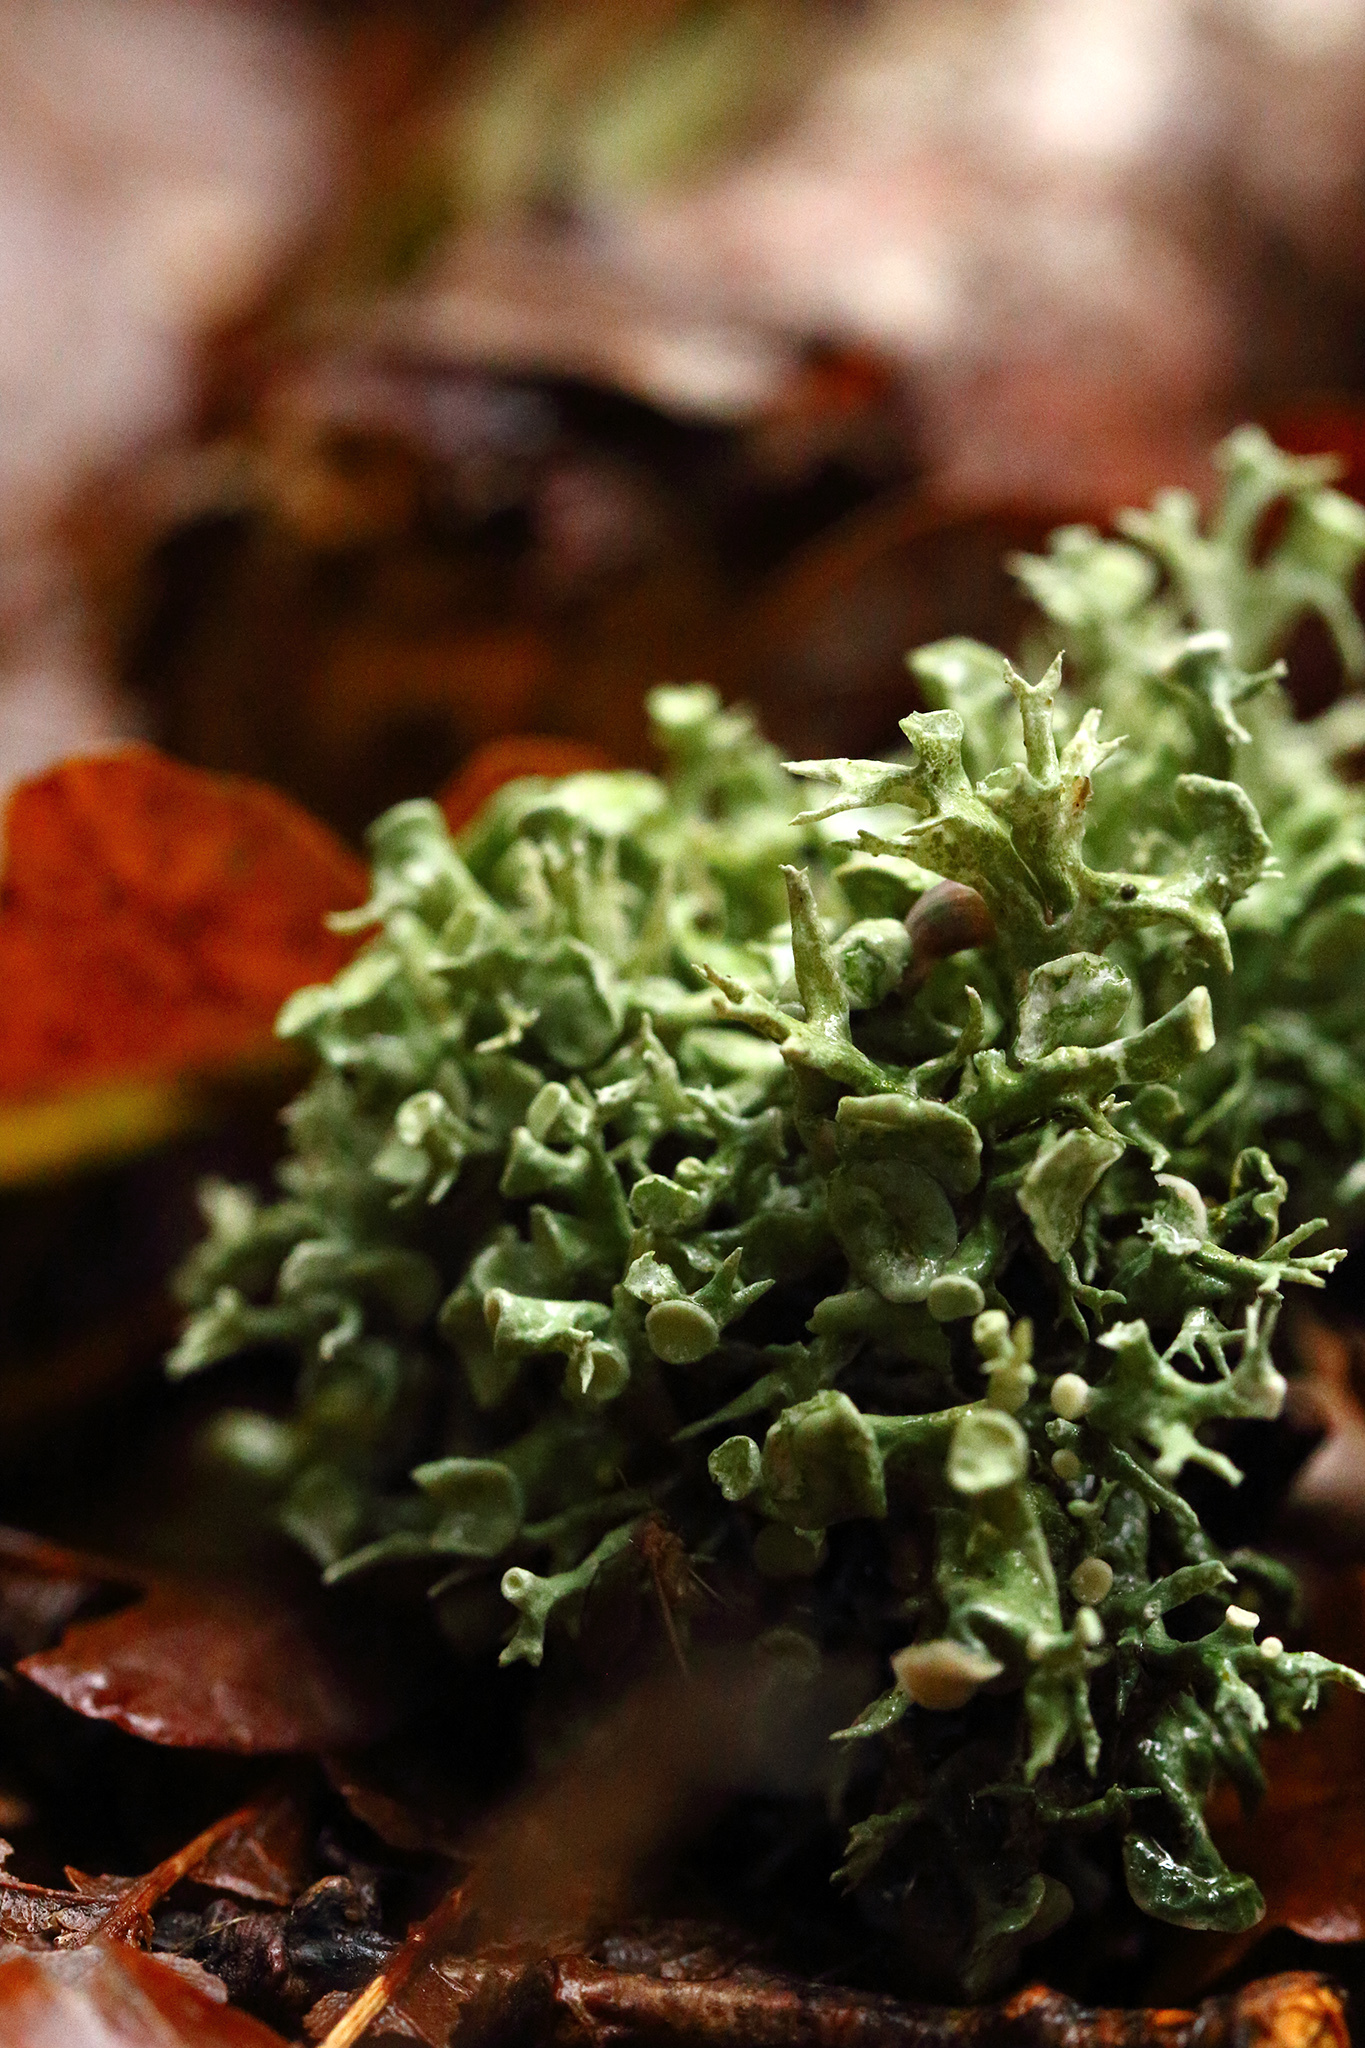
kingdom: Fungi
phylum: Ascomycota
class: Lecanoromycetes
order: Lecanorales
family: Ramalinaceae
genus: Ramalina
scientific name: Ramalina fastigiata
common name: Dotted ribbon lichen
